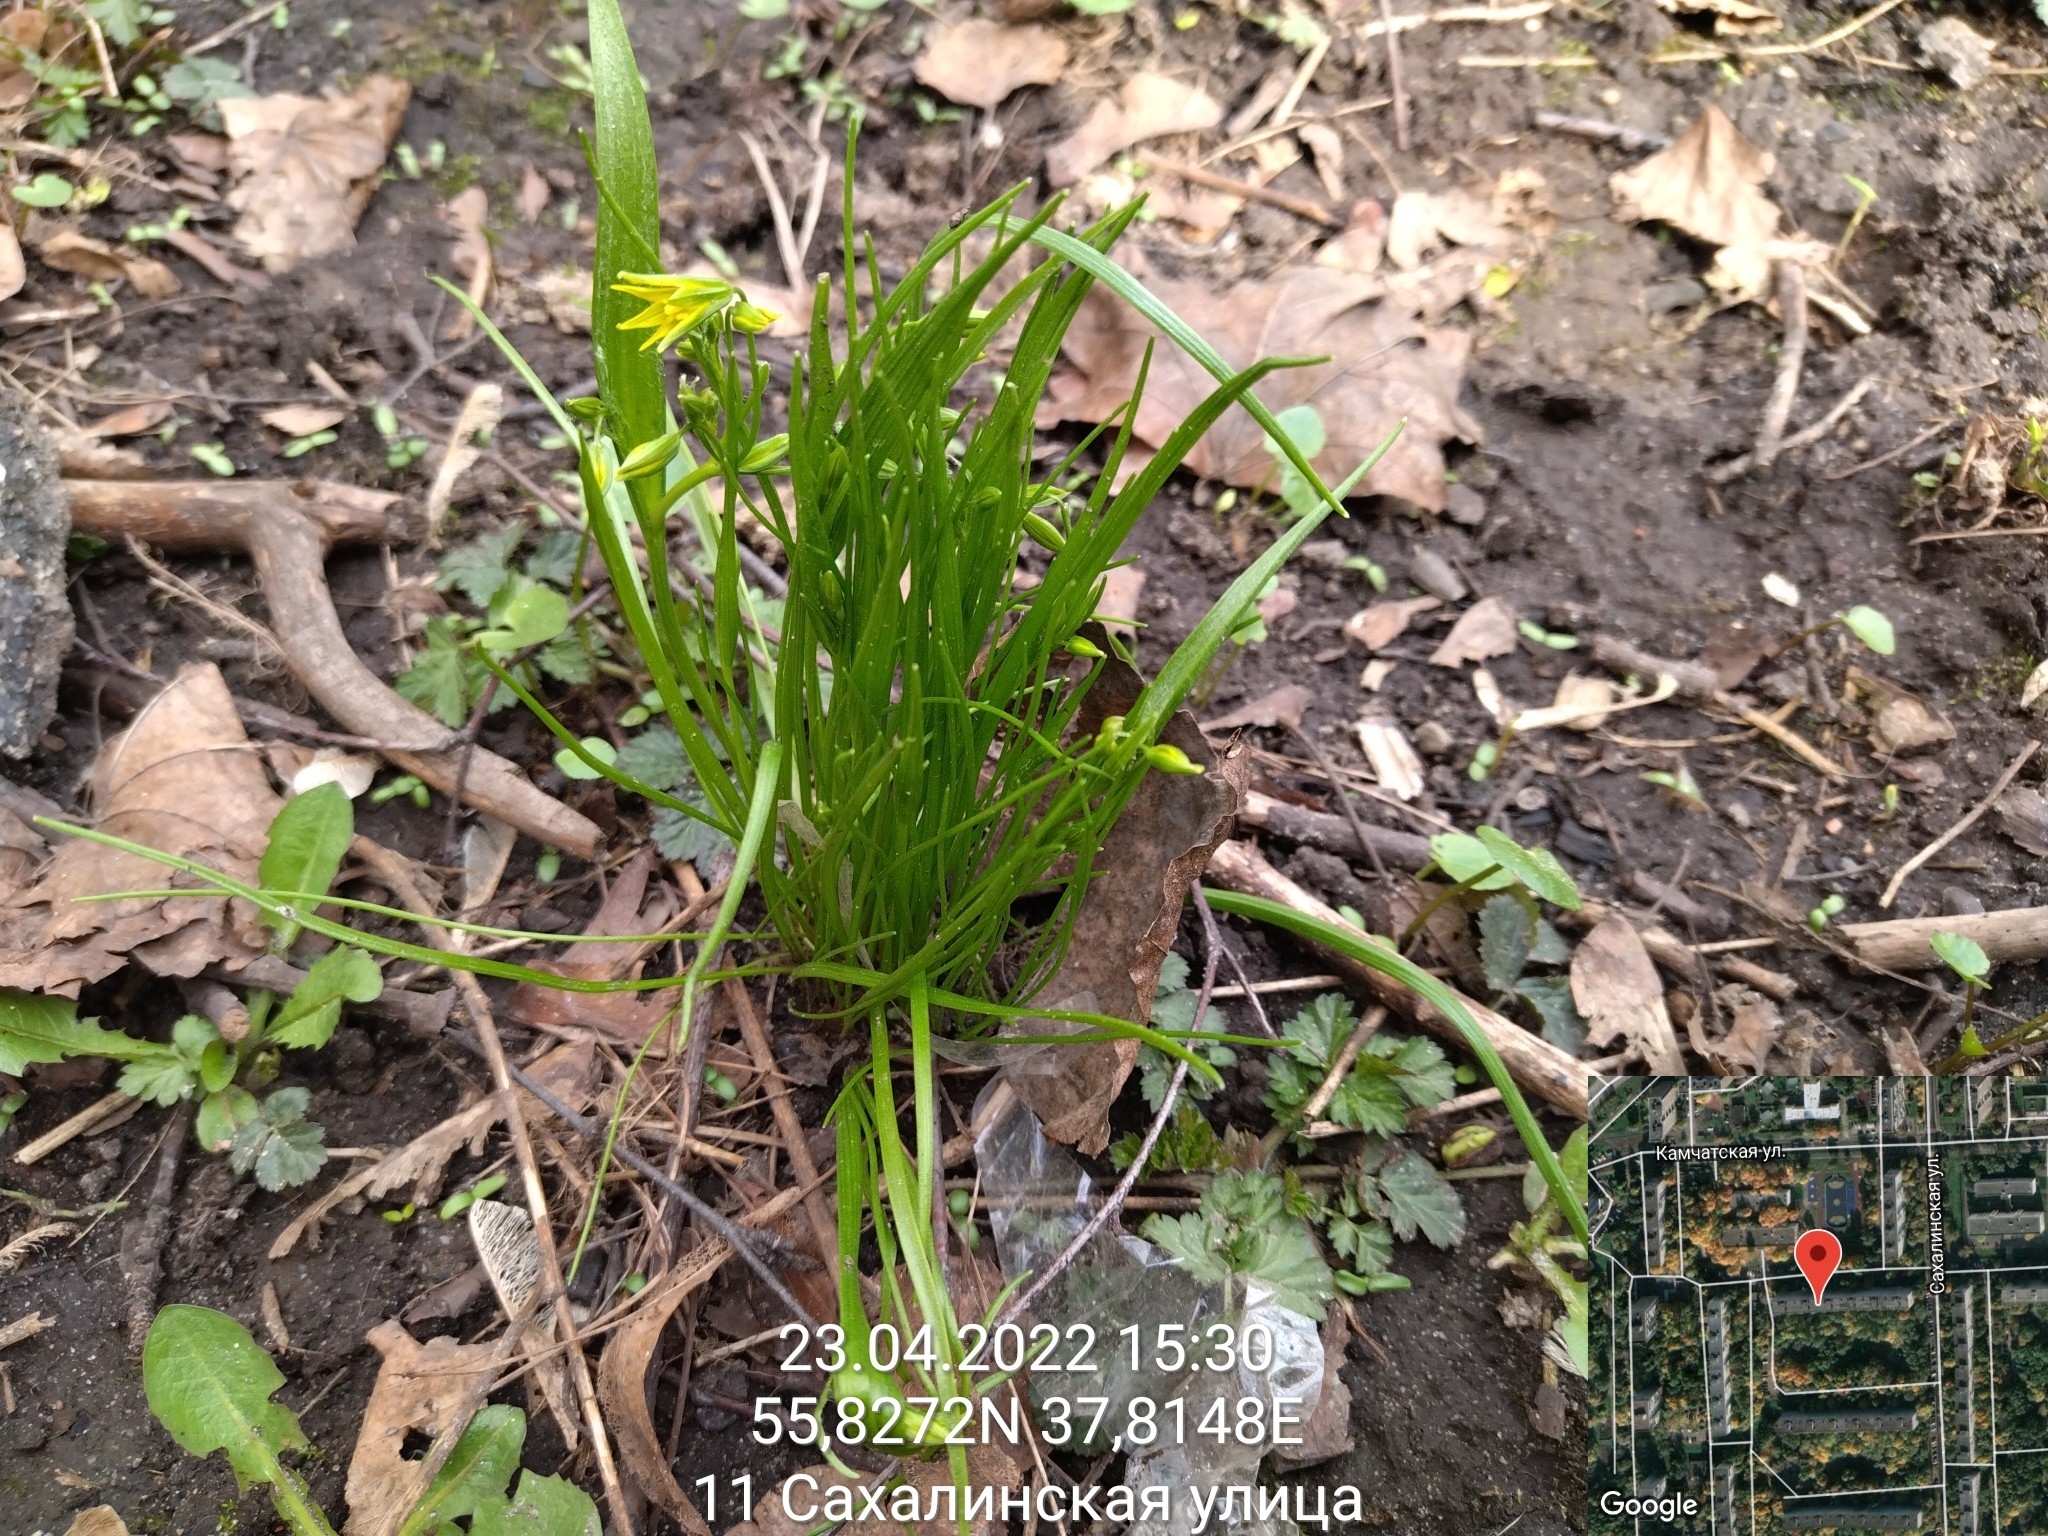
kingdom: Plantae
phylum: Tracheophyta
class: Liliopsida
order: Liliales
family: Liliaceae
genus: Gagea
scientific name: Gagea minima
